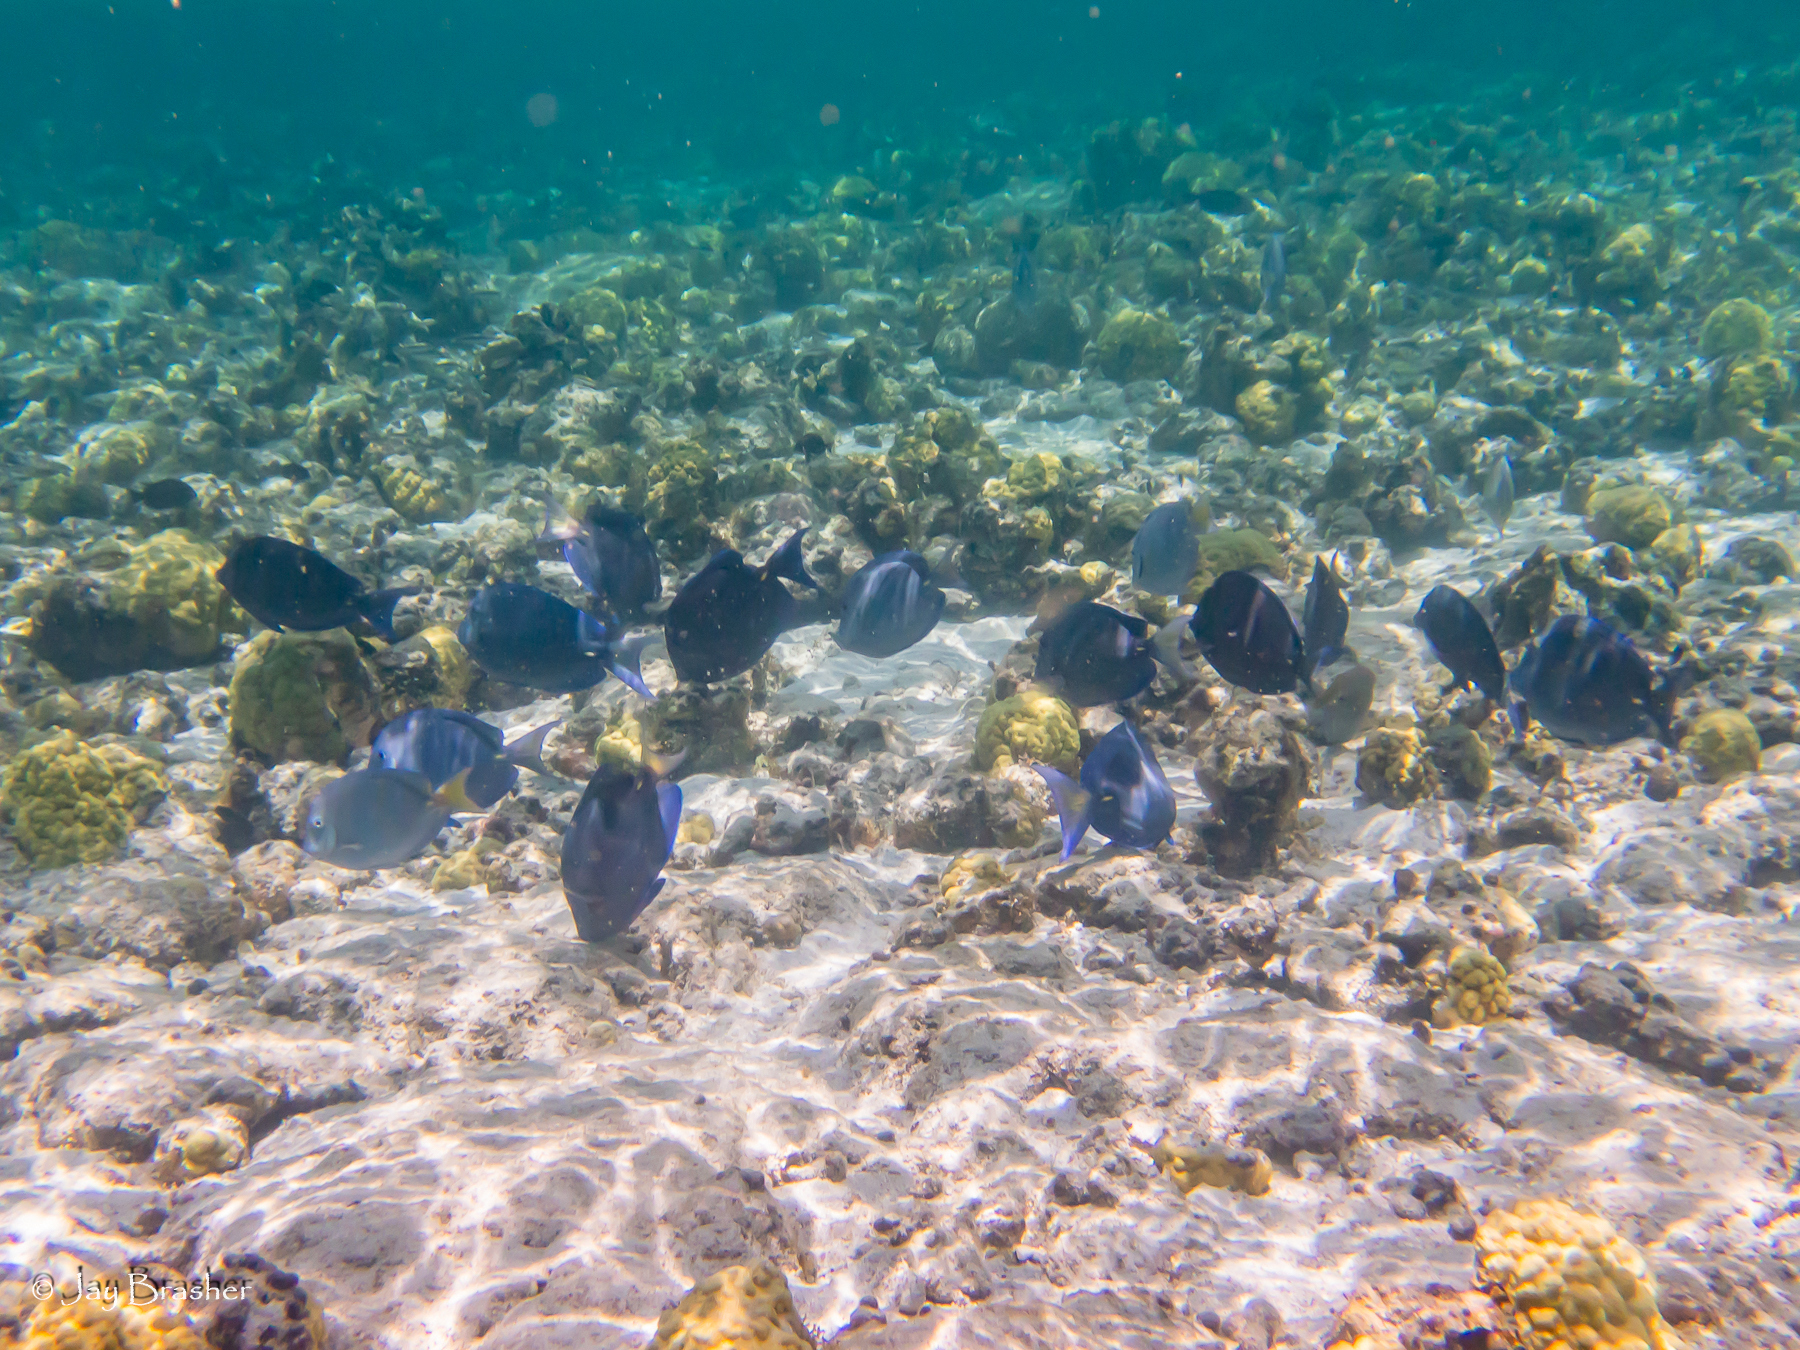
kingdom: Animalia
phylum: Chordata
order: Perciformes
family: Acanthuridae
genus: Acanthurus
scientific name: Acanthurus coeruleus
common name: Blue tang
